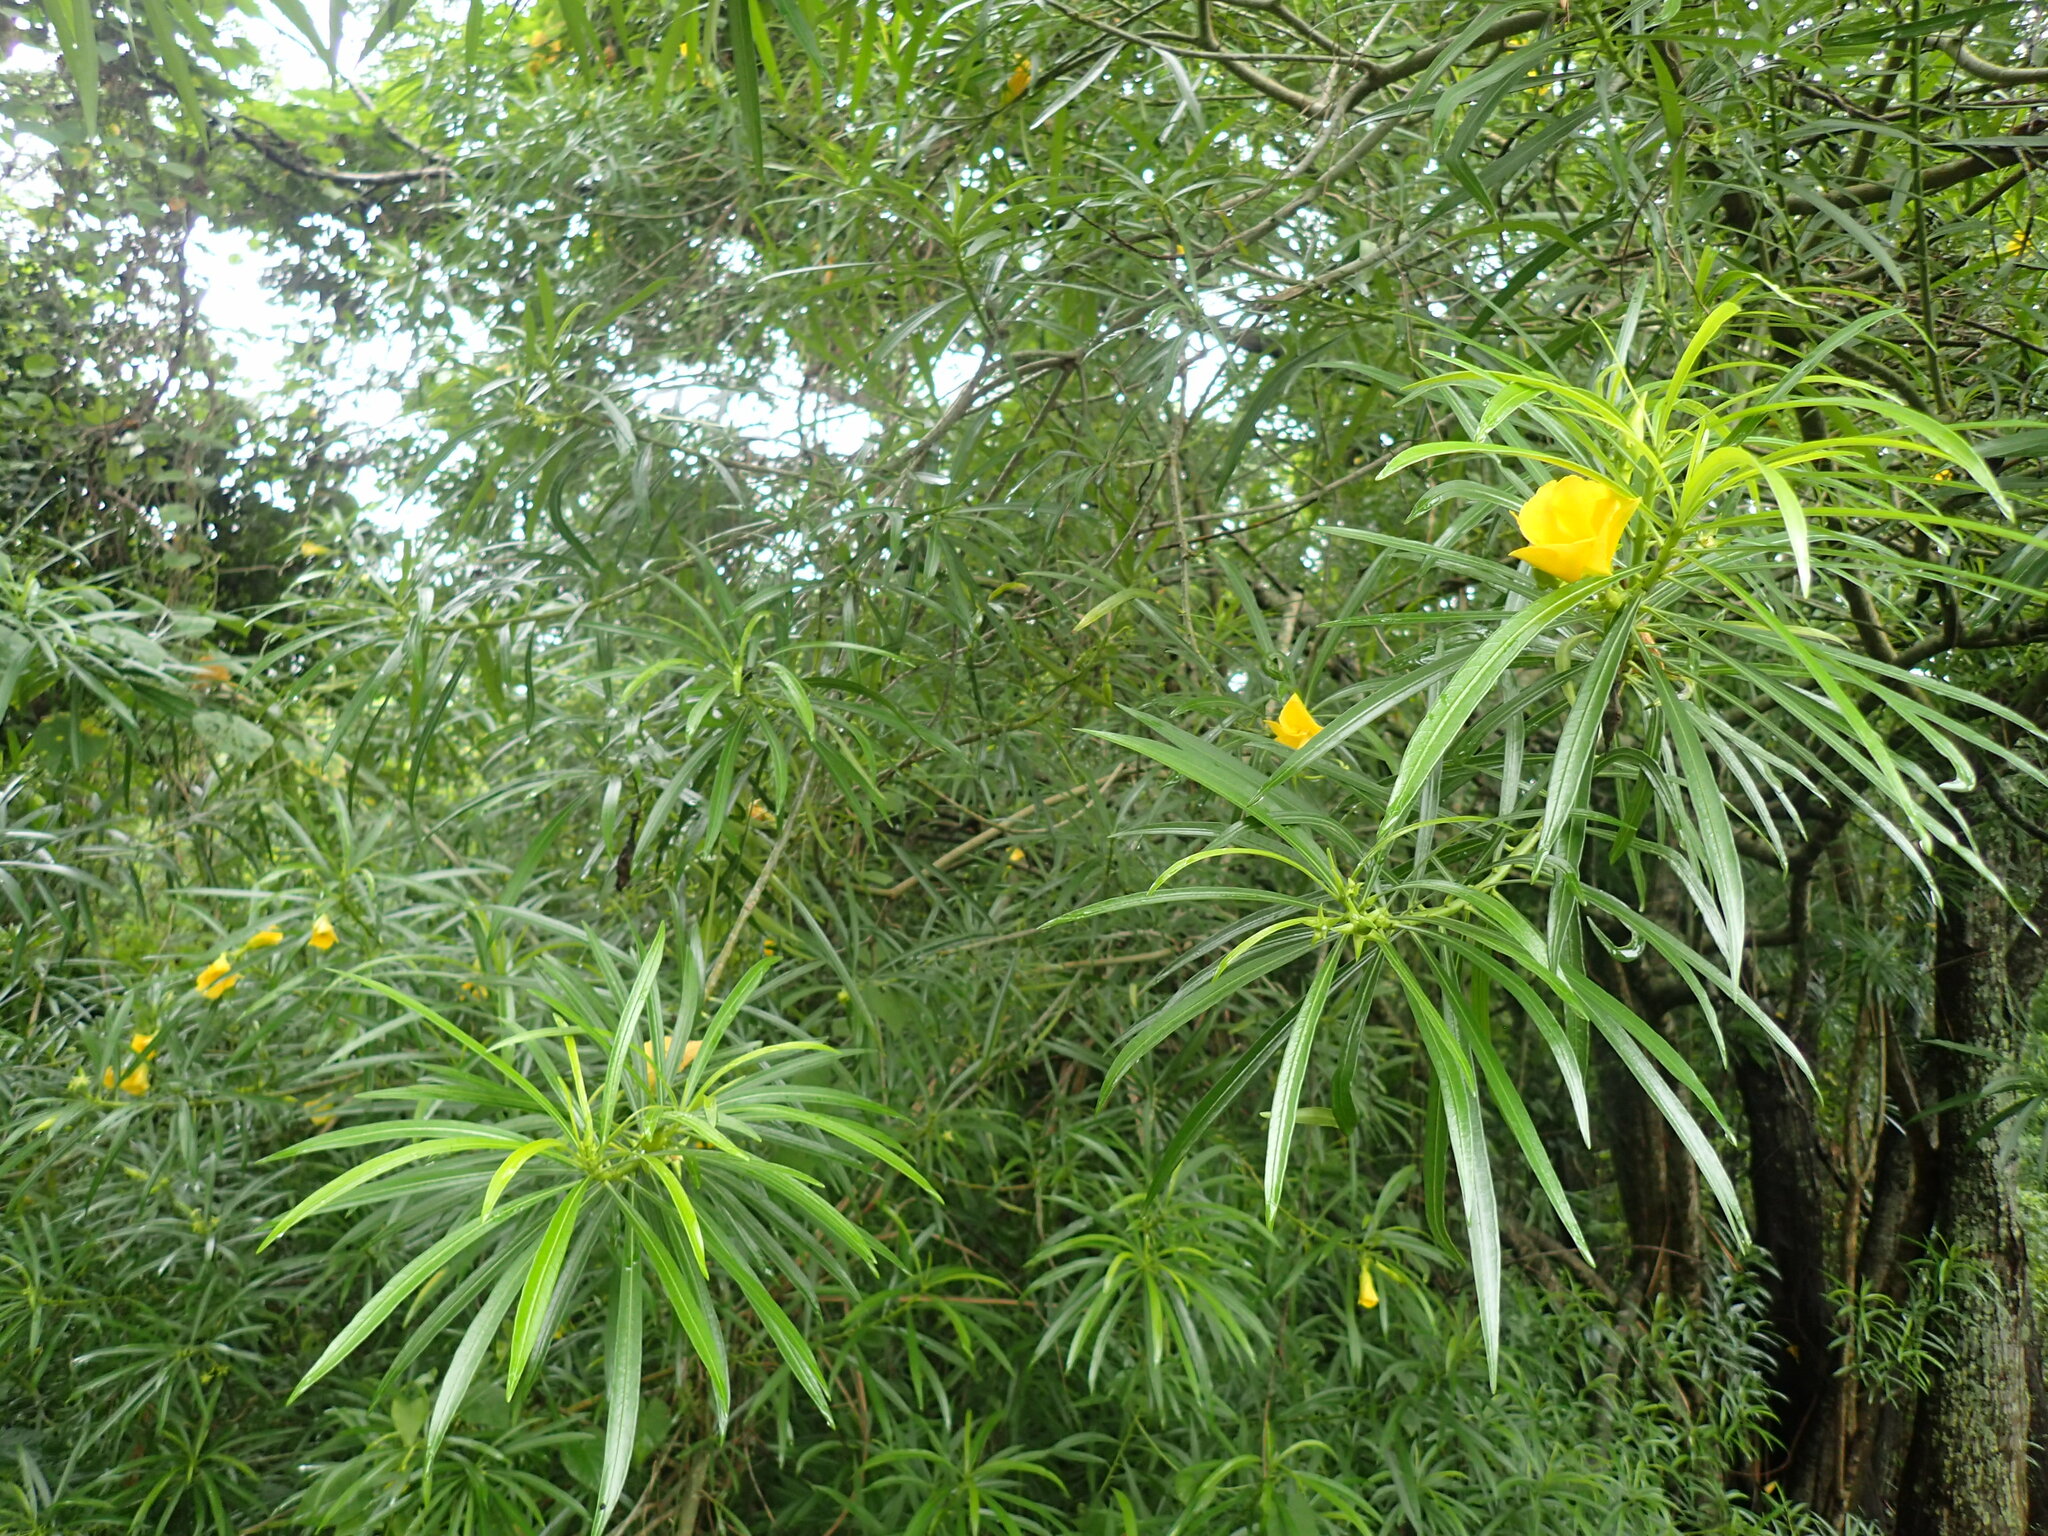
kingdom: Plantae
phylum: Tracheophyta
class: Magnoliopsida
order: Gentianales
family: Apocynaceae
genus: Cascabela
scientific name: Cascabela thevetia
